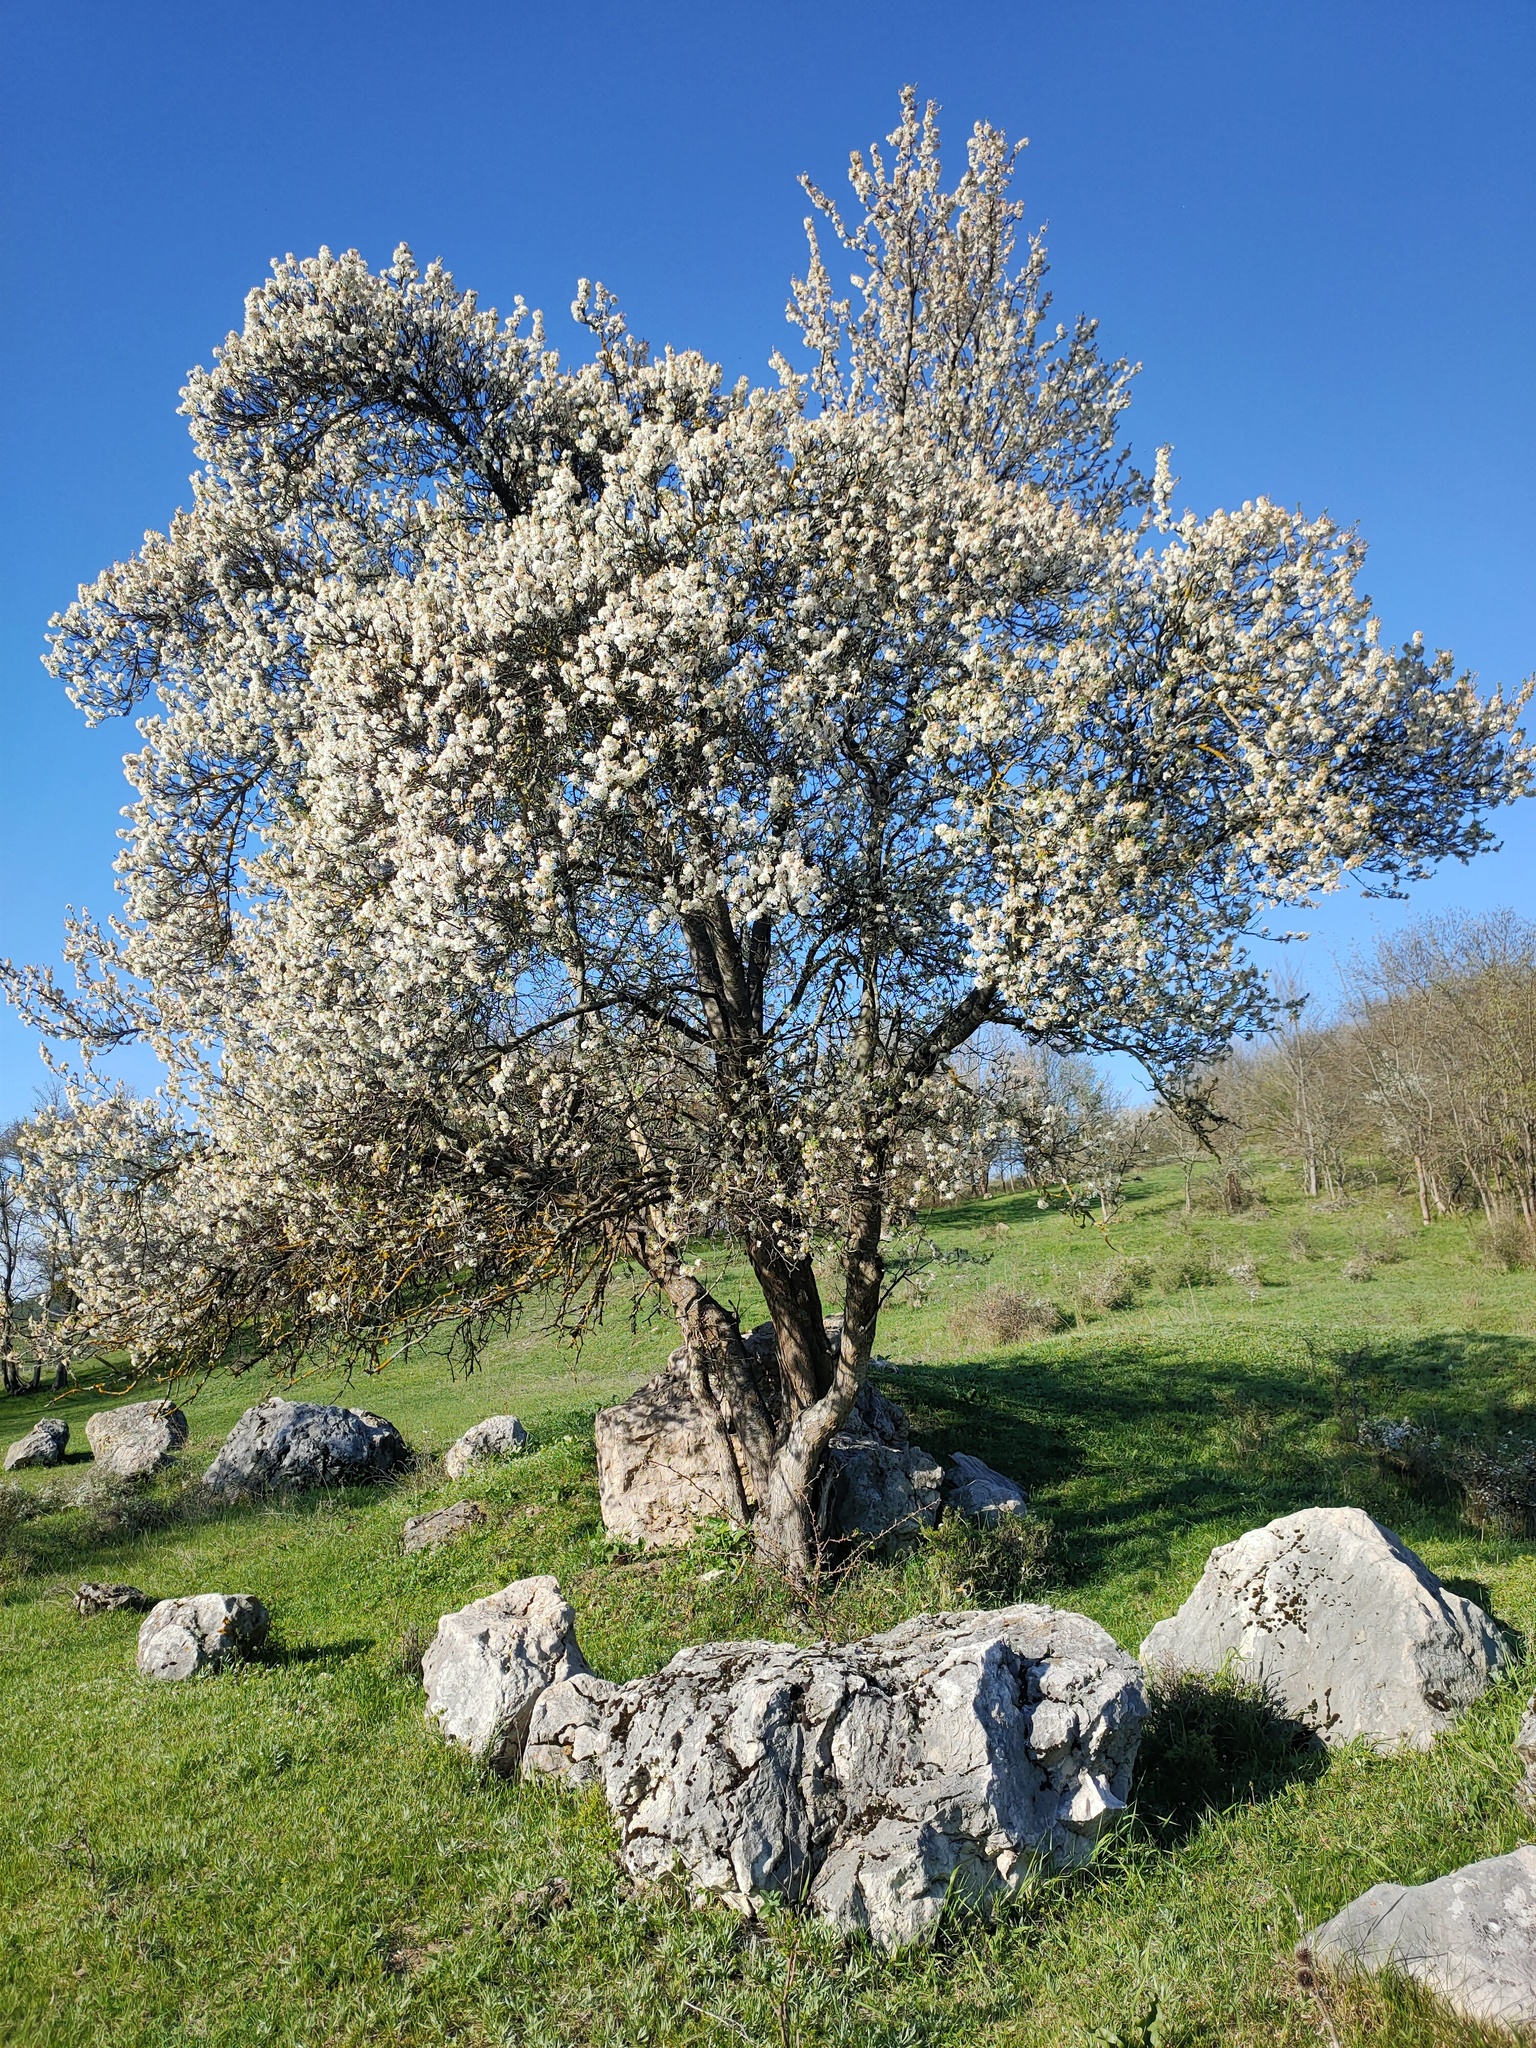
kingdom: Plantae
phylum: Tracheophyta
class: Magnoliopsida
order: Rosales
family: Rosaceae
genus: Prunus
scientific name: Prunus amygdalus
